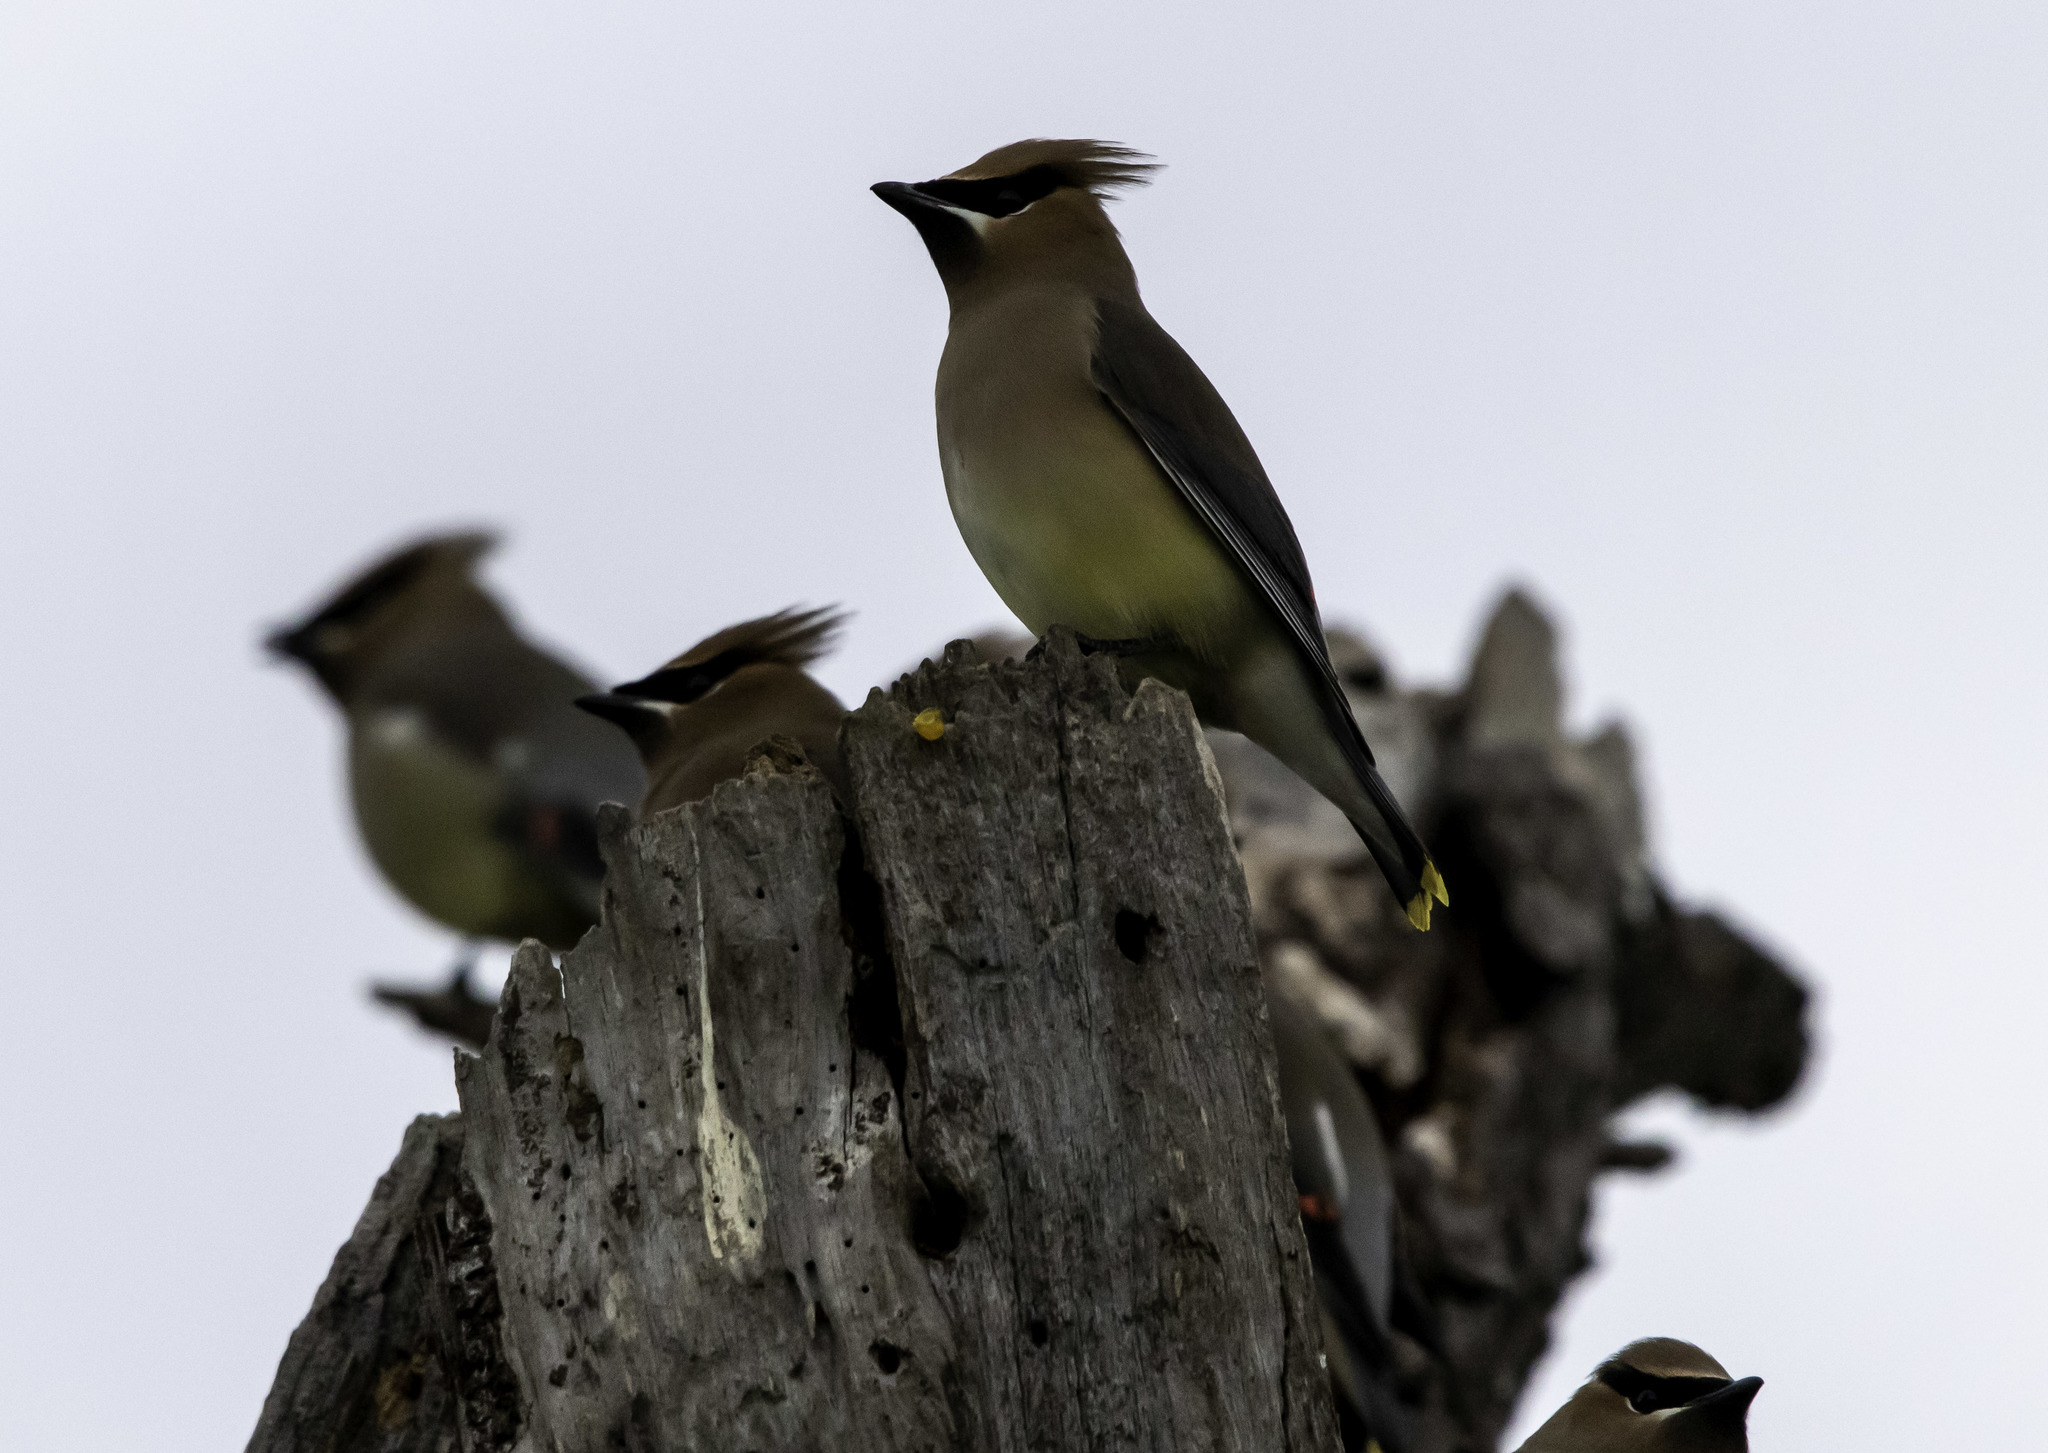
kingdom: Animalia
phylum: Chordata
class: Aves
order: Passeriformes
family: Bombycillidae
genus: Bombycilla
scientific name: Bombycilla cedrorum
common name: Cedar waxwing
